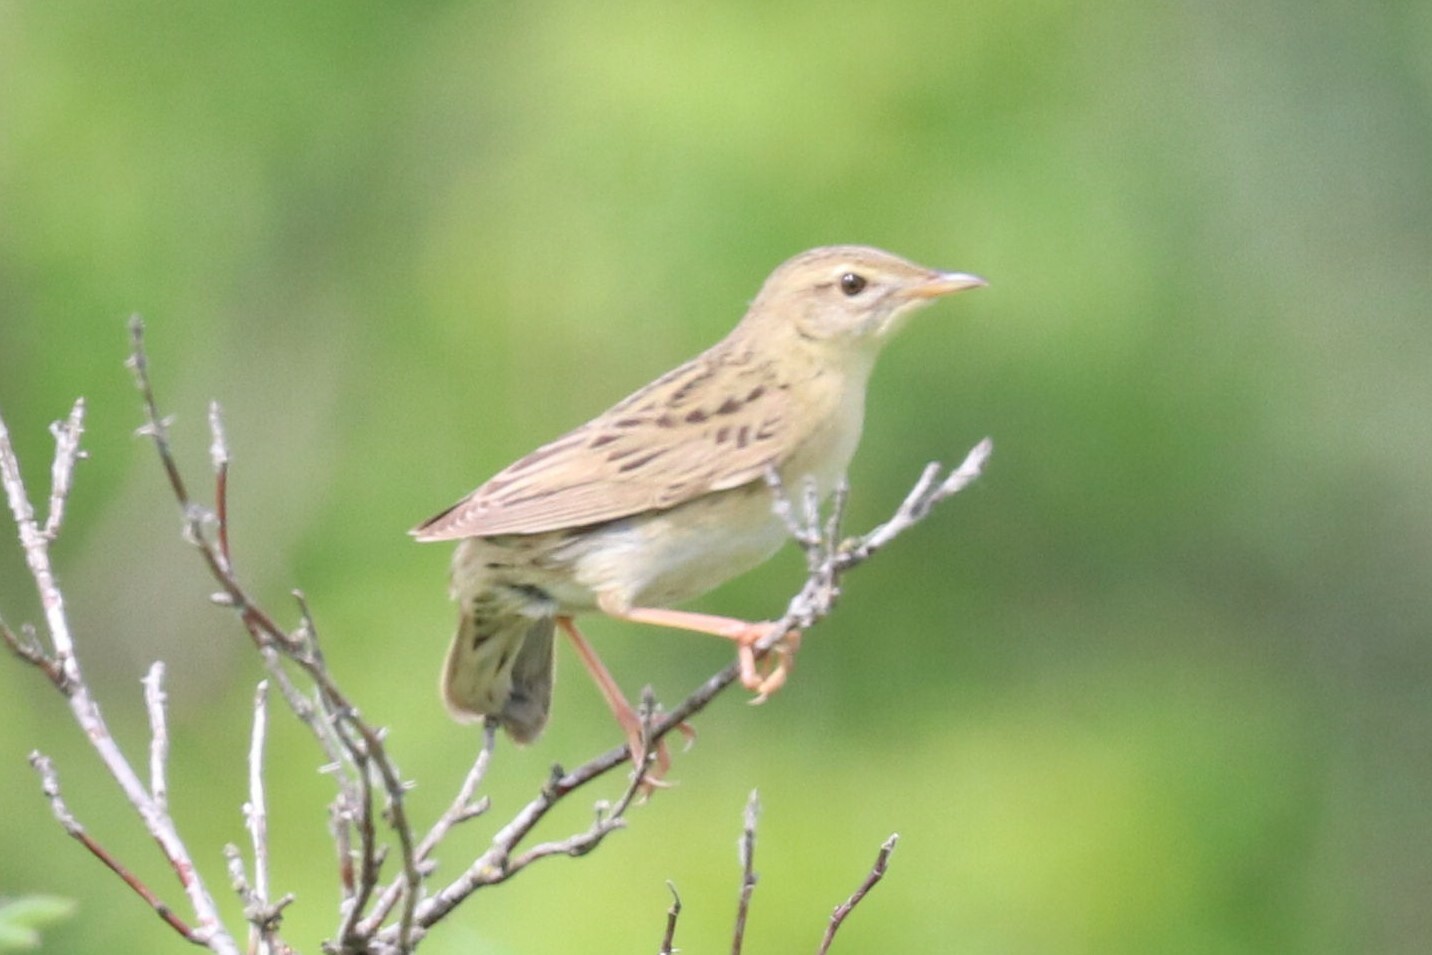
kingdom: Animalia
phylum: Chordata
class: Aves
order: Passeriformes
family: Locustellidae
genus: Locustella
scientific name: Locustella naevia
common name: Common grasshopper warbler
